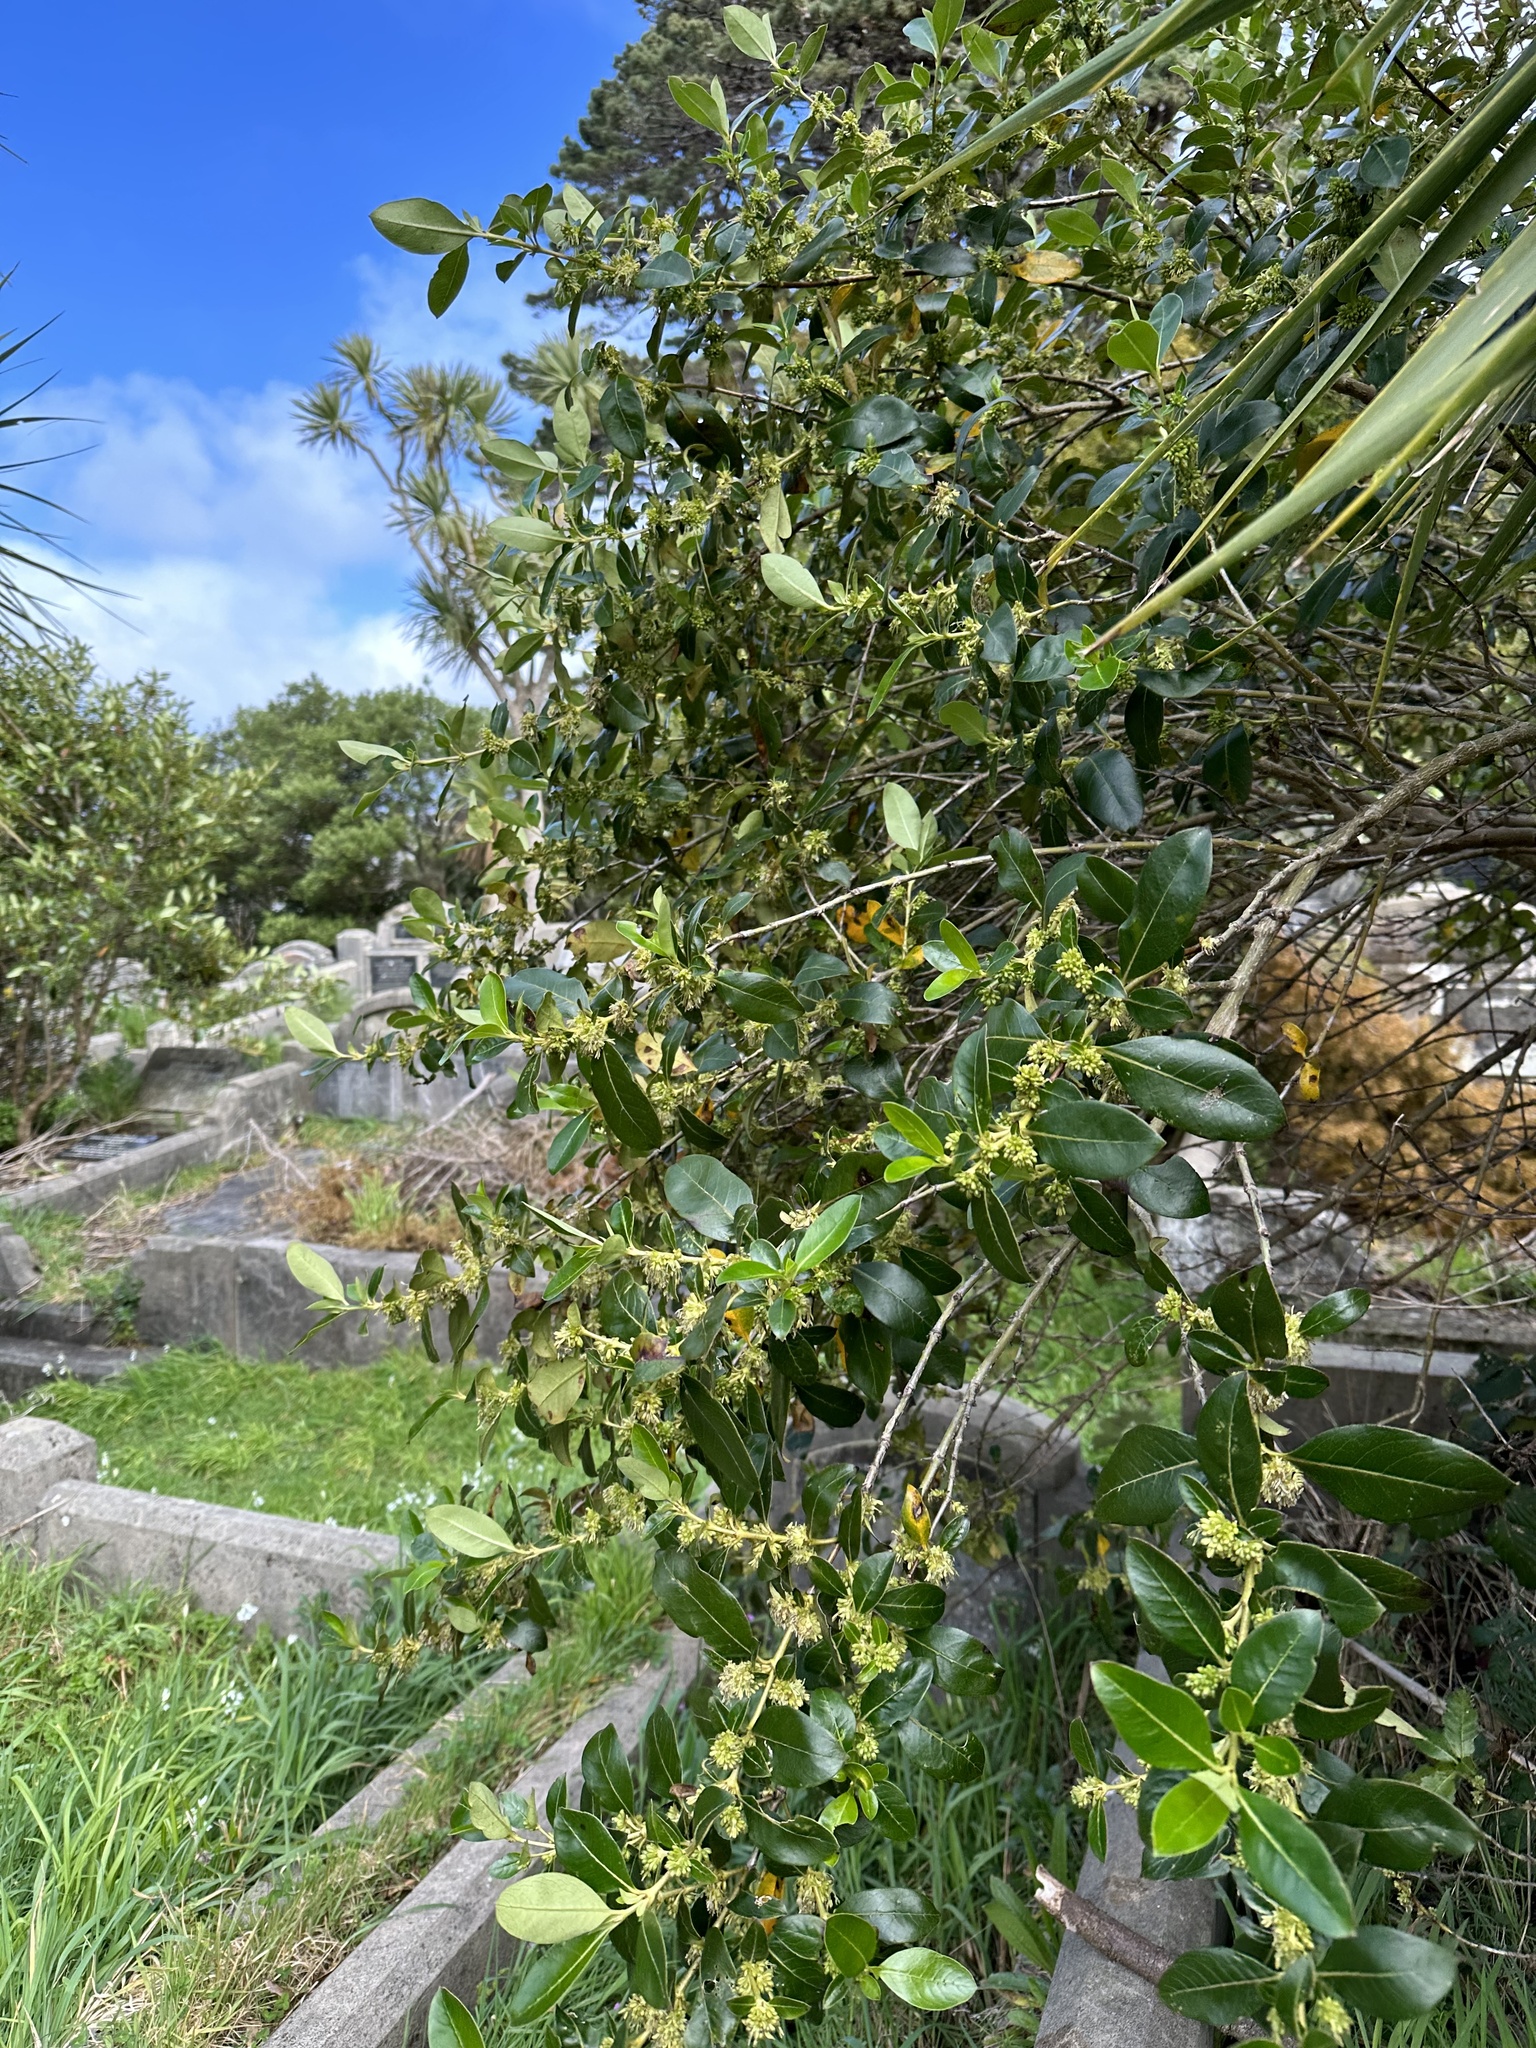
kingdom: Plantae
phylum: Tracheophyta
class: Magnoliopsida
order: Gentianales
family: Rubiaceae
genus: Coprosma
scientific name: Coprosma robusta
